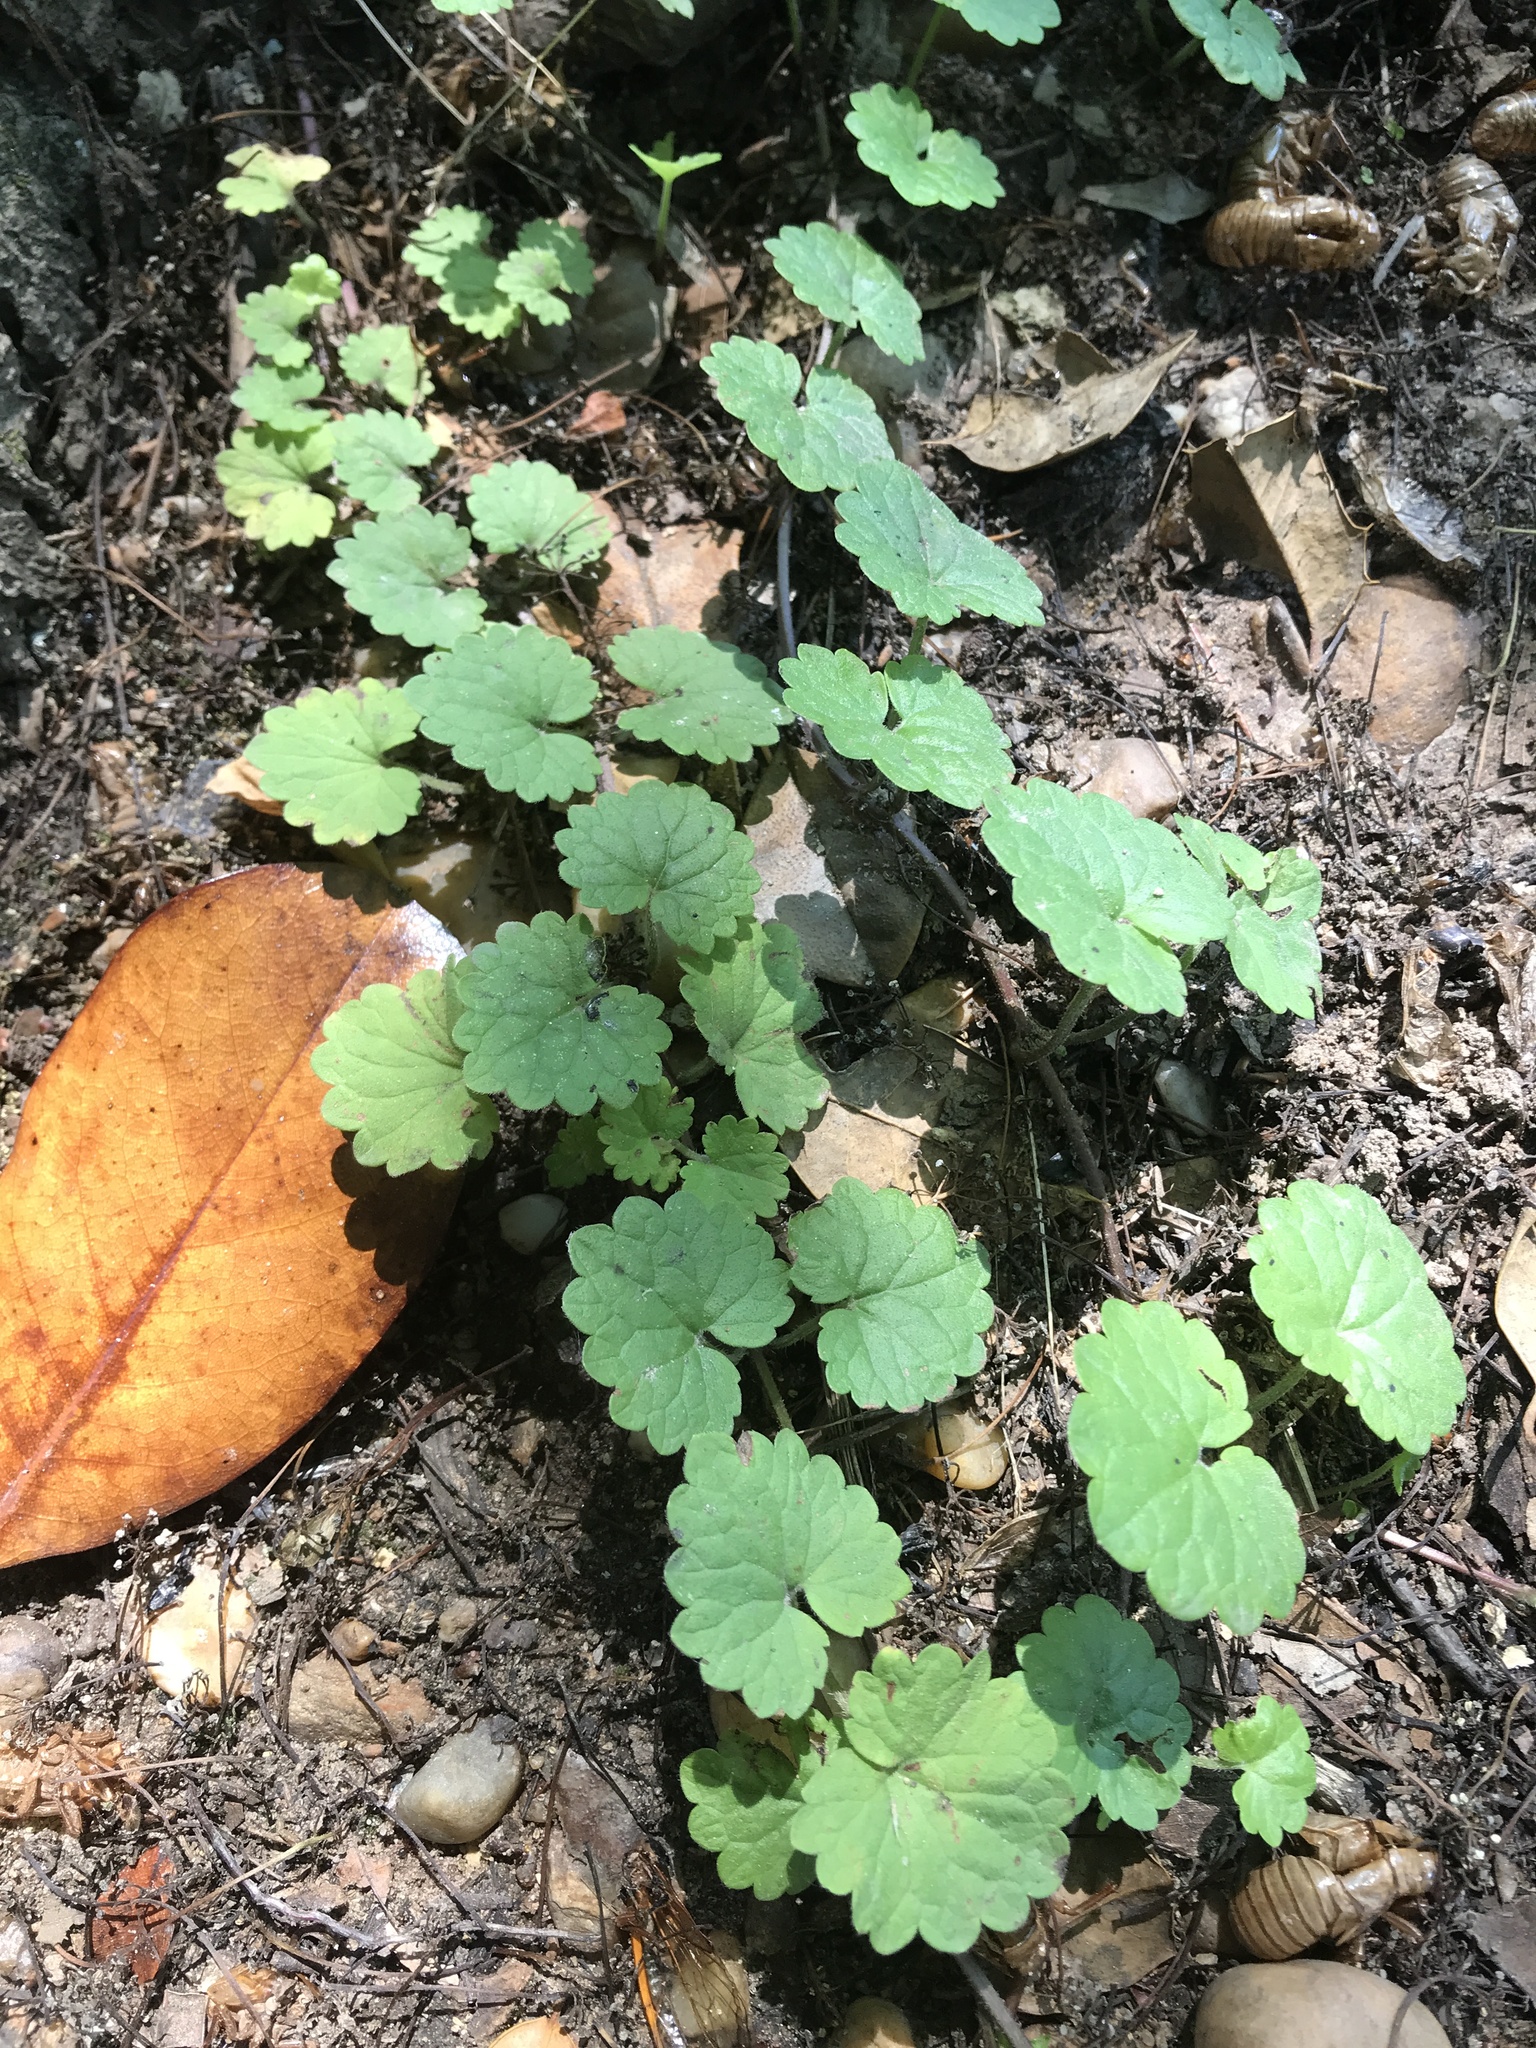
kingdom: Plantae
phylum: Tracheophyta
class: Magnoliopsida
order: Lamiales
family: Lamiaceae
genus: Glechoma
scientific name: Glechoma hederacea
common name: Ground ivy
